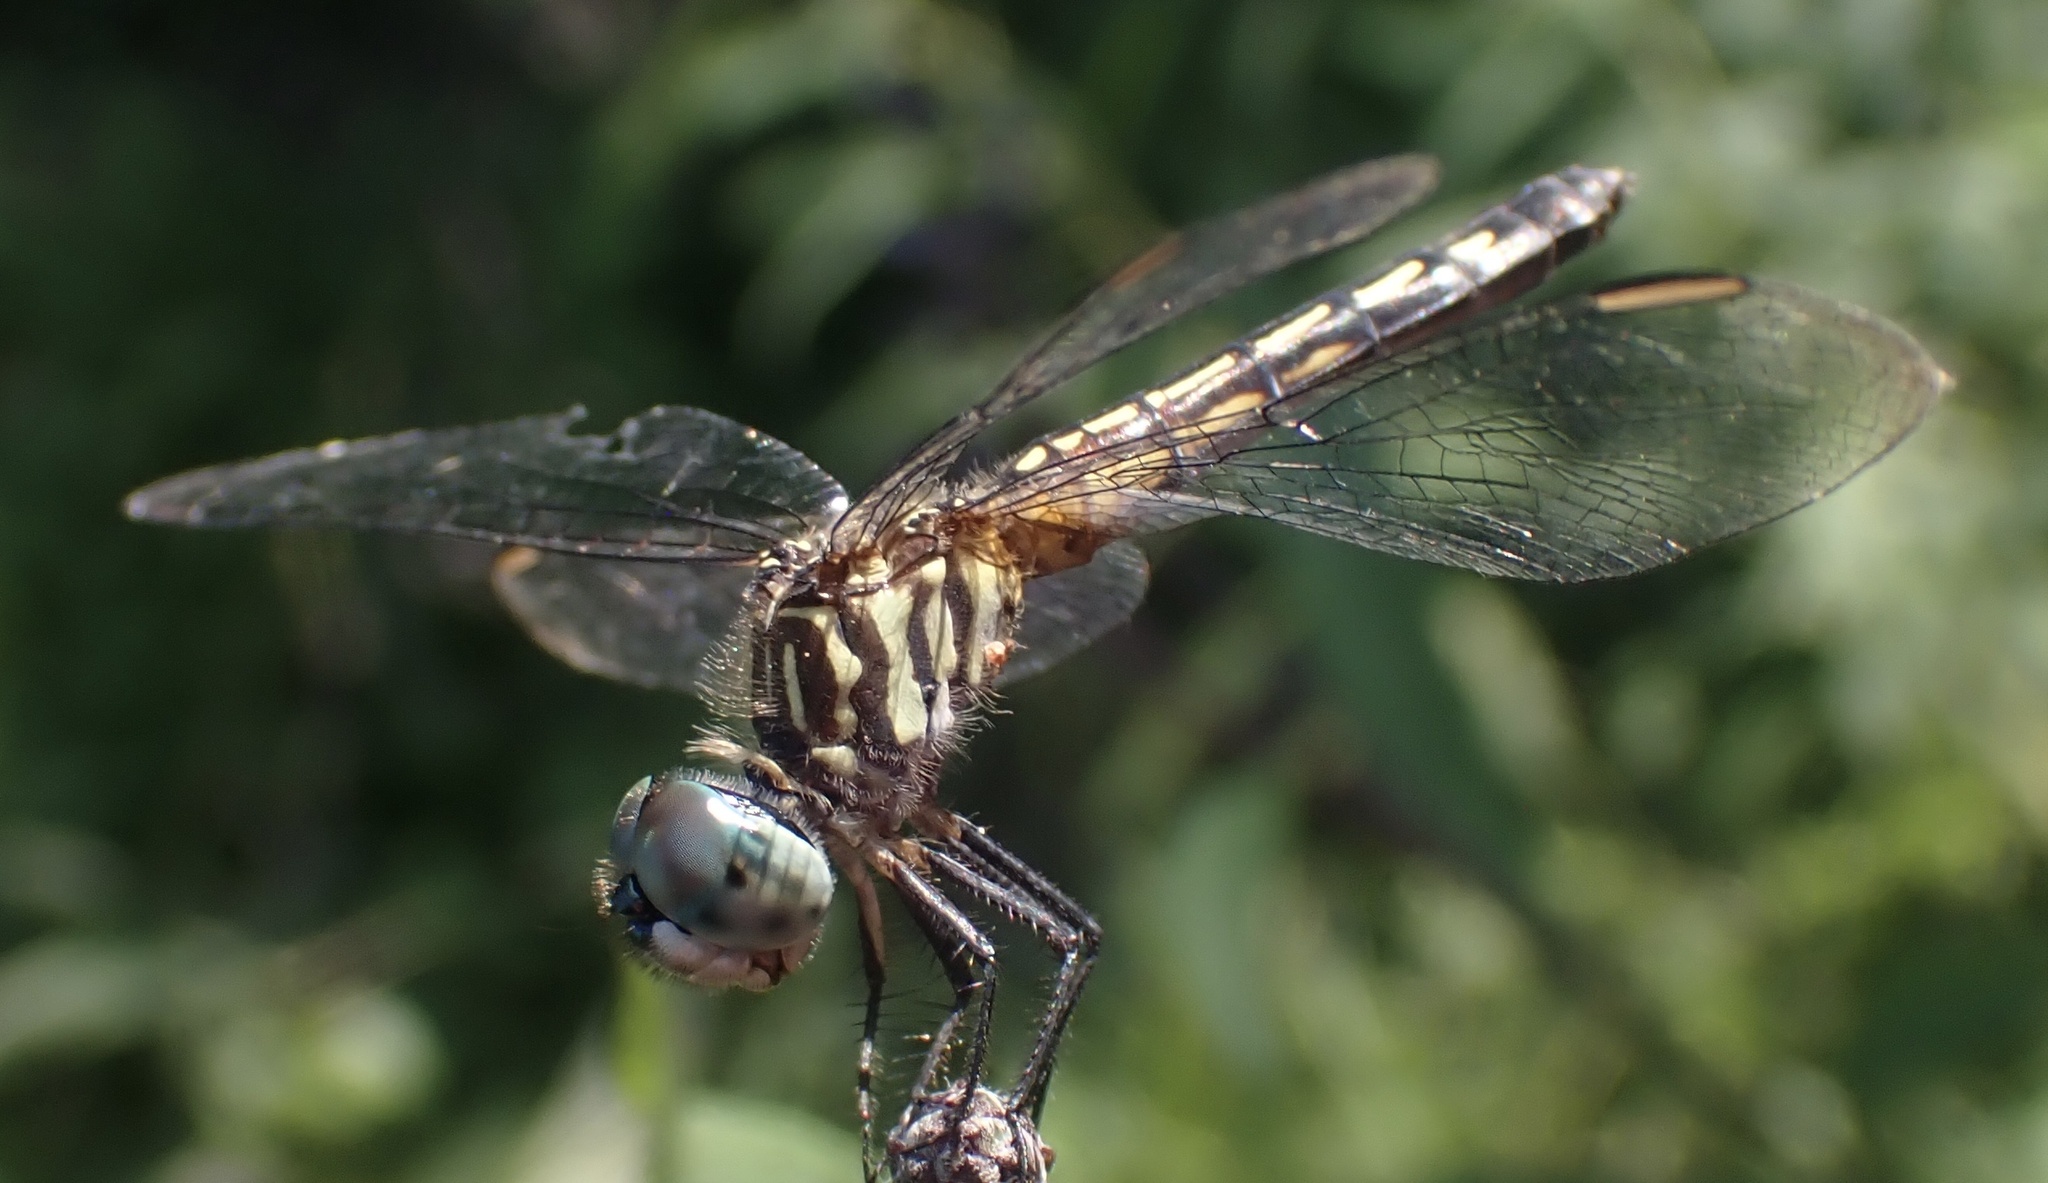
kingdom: Animalia
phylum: Arthropoda
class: Insecta
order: Odonata
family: Libellulidae
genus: Pachydiplax
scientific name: Pachydiplax longipennis
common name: Blue dasher
